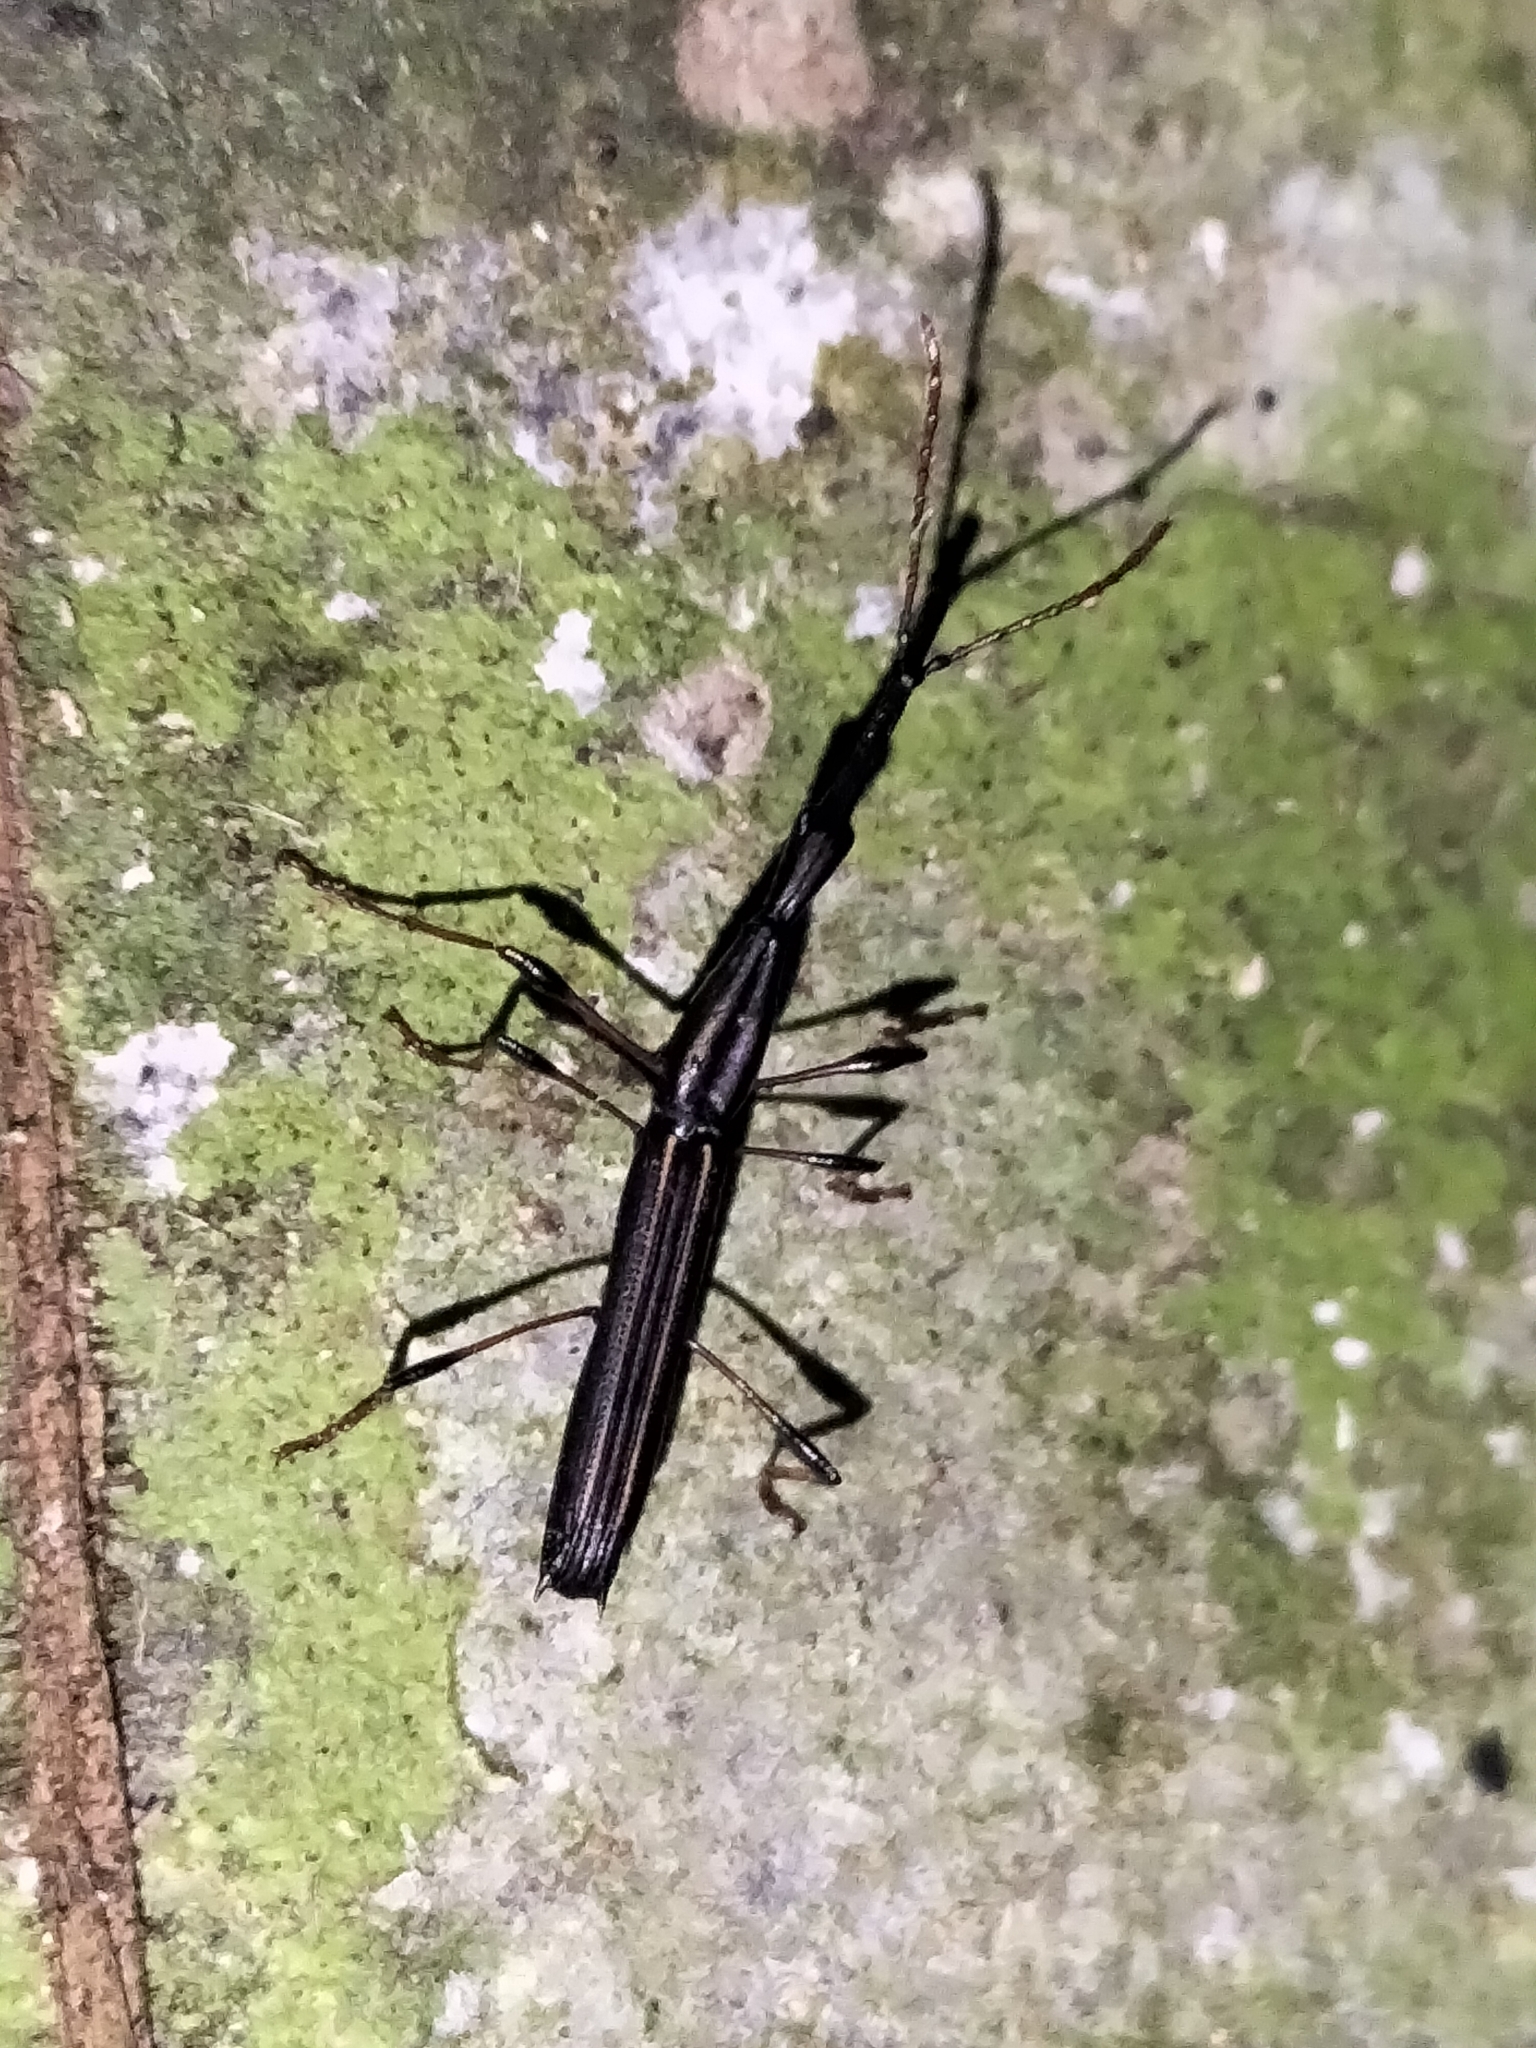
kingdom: Animalia
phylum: Arthropoda
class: Insecta
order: Coleoptera
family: Brentidae
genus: Ithystenus
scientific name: Ithystenus hollandiae
